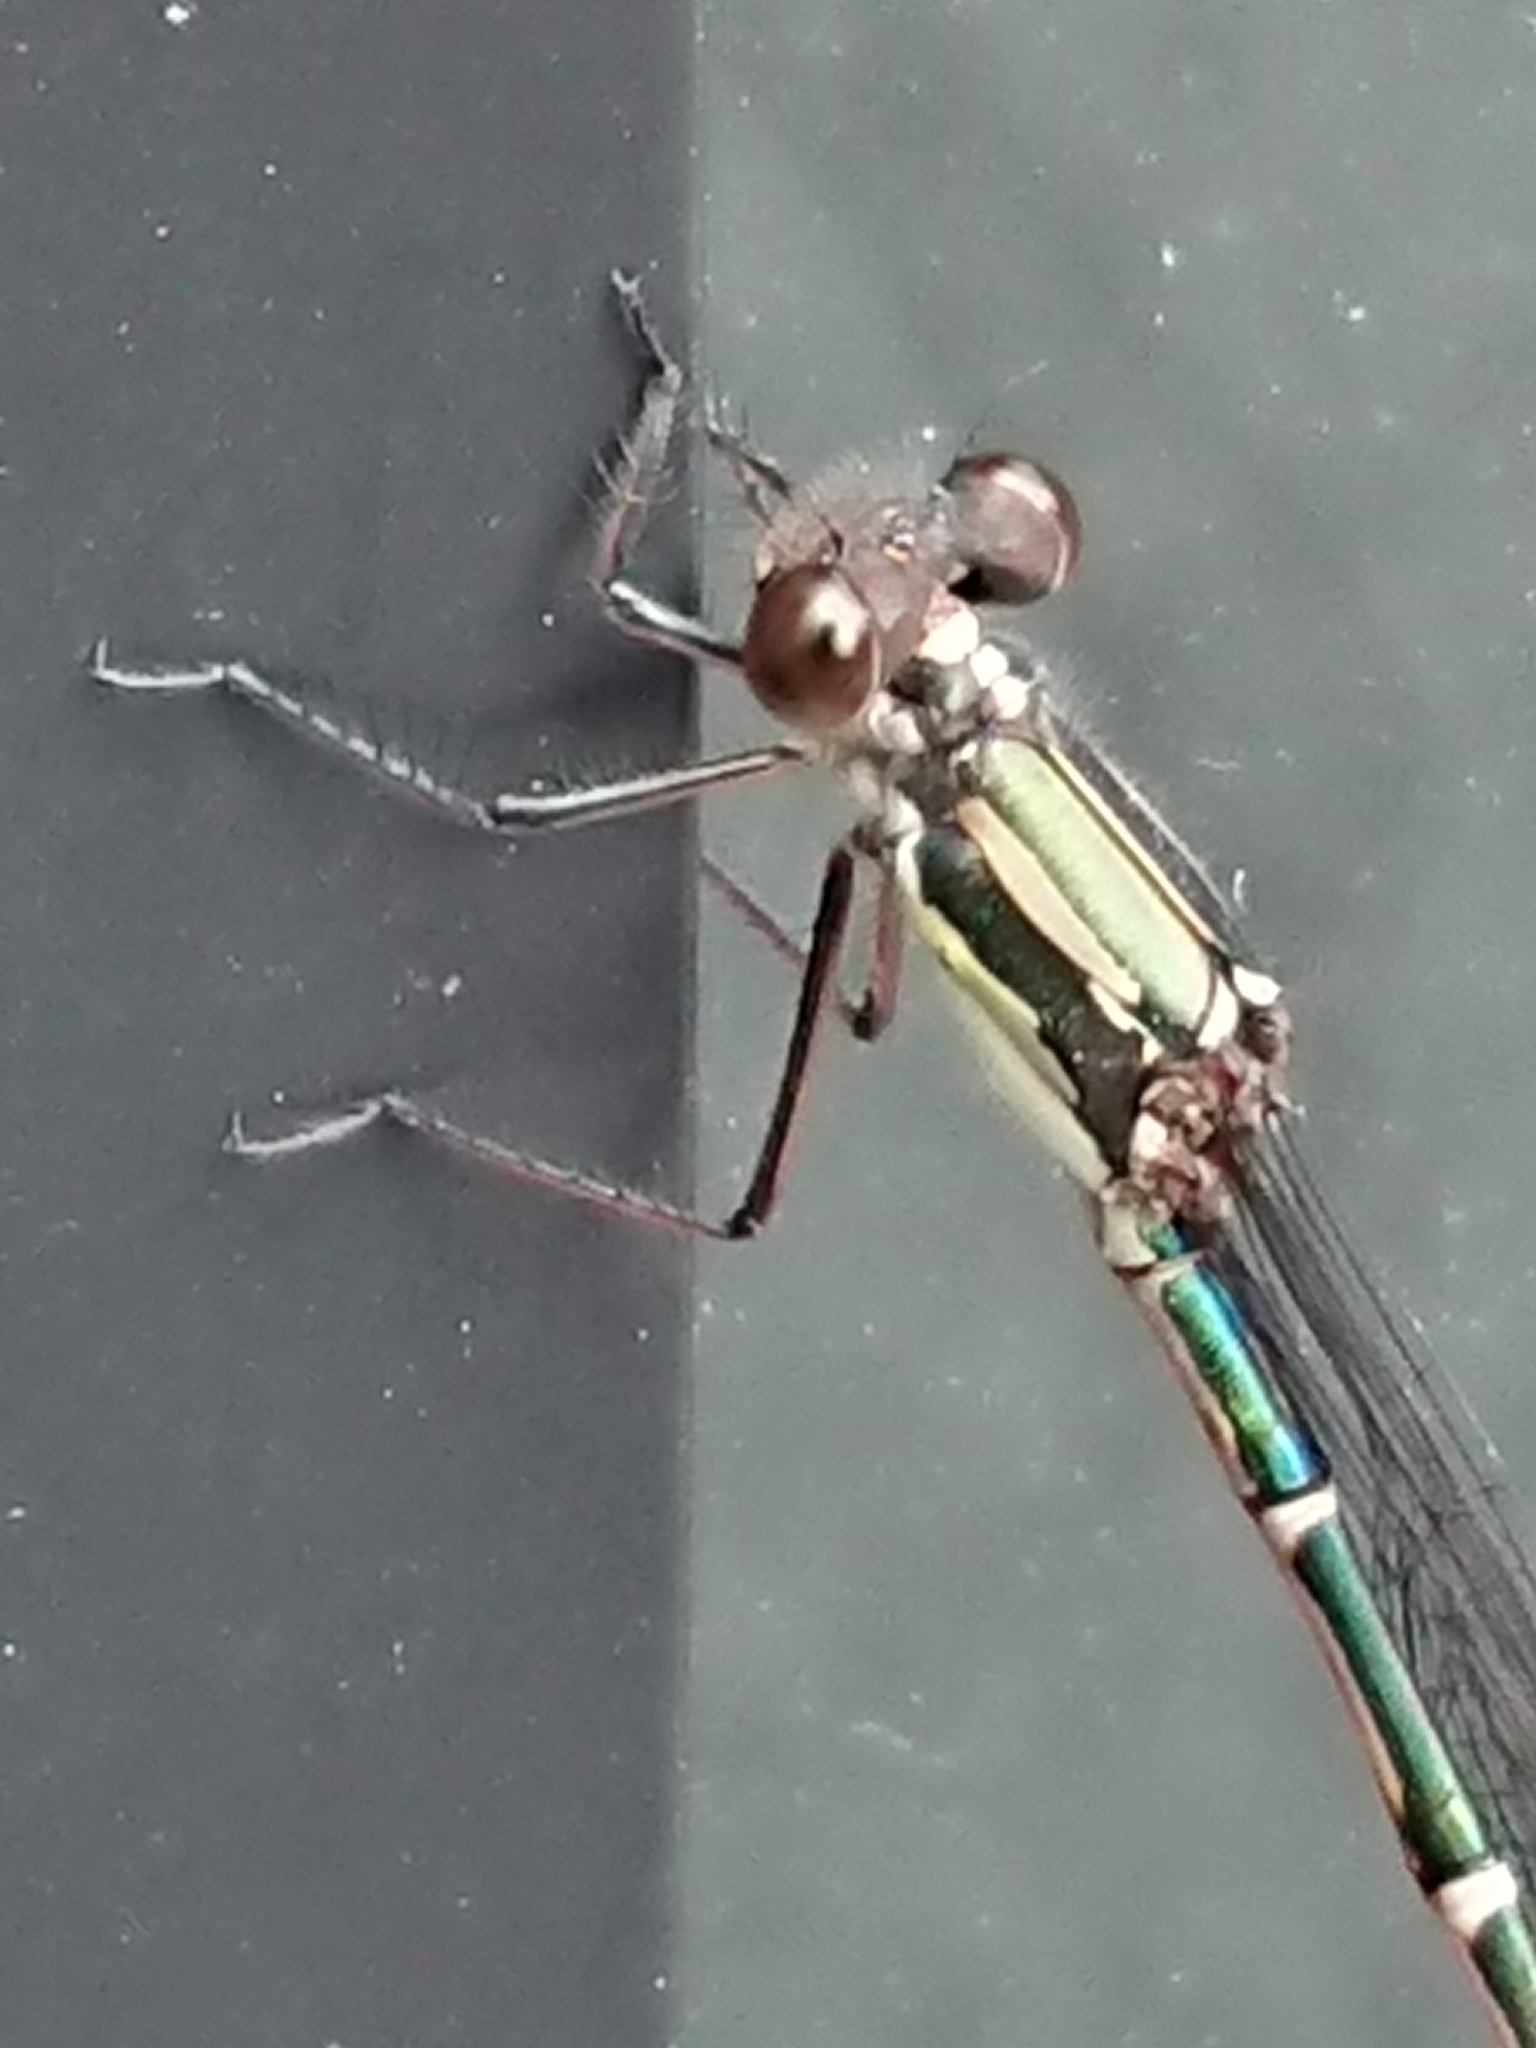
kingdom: Animalia
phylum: Arthropoda
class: Insecta
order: Odonata
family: Lestidae
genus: Austrolestes
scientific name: Austrolestes colensonis
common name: Blue damselfly
